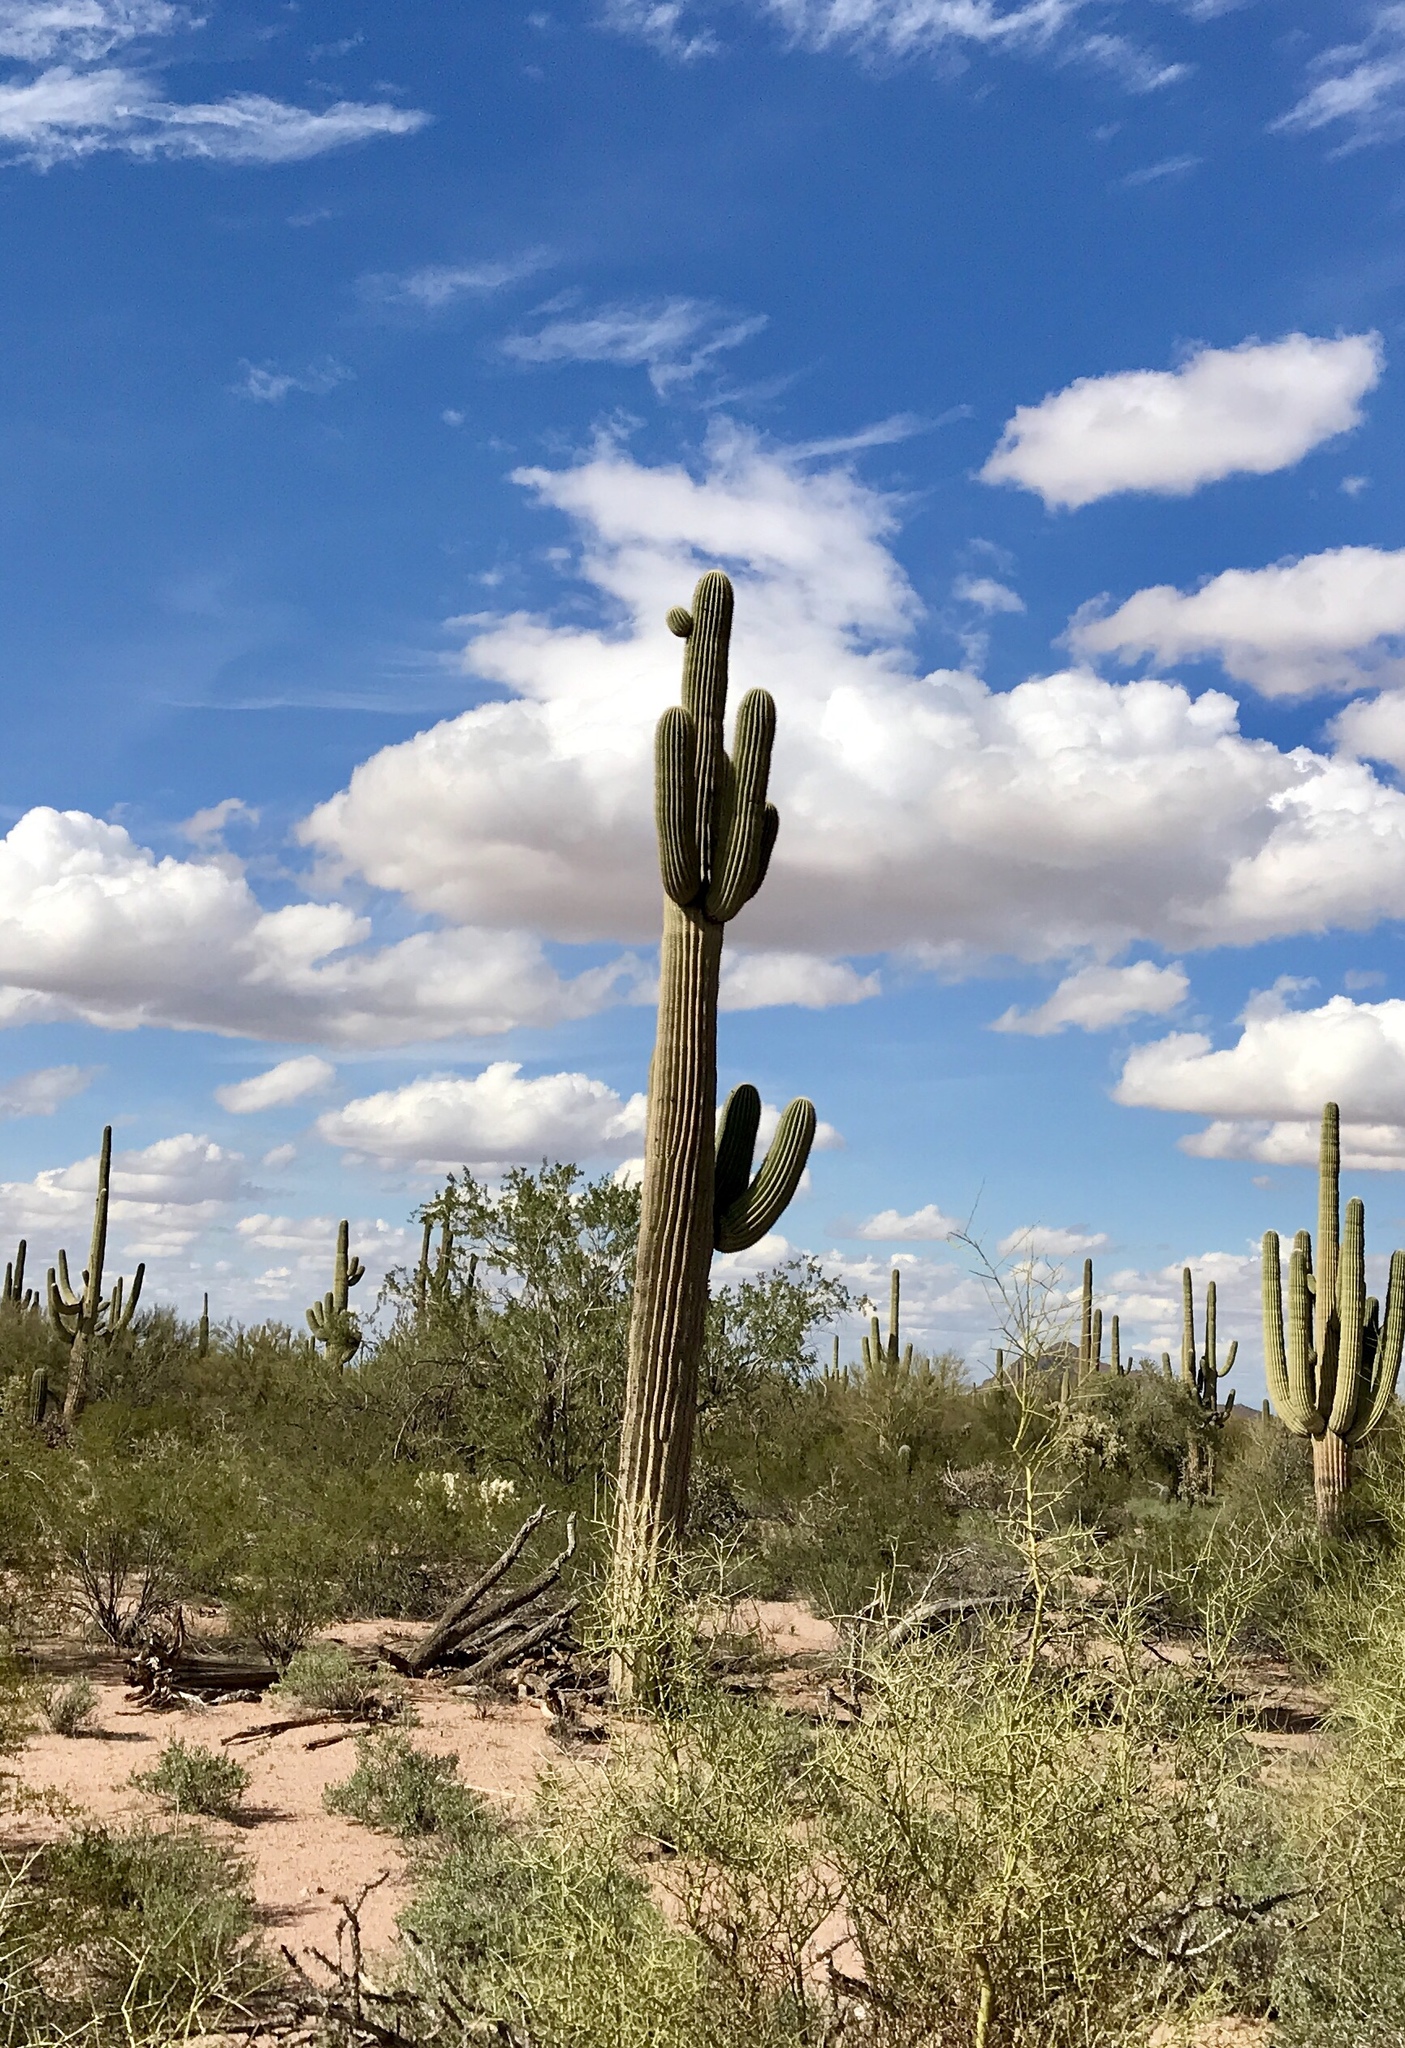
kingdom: Plantae
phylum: Tracheophyta
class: Magnoliopsida
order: Caryophyllales
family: Cactaceae
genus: Carnegiea
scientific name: Carnegiea gigantea
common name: Saguaro
